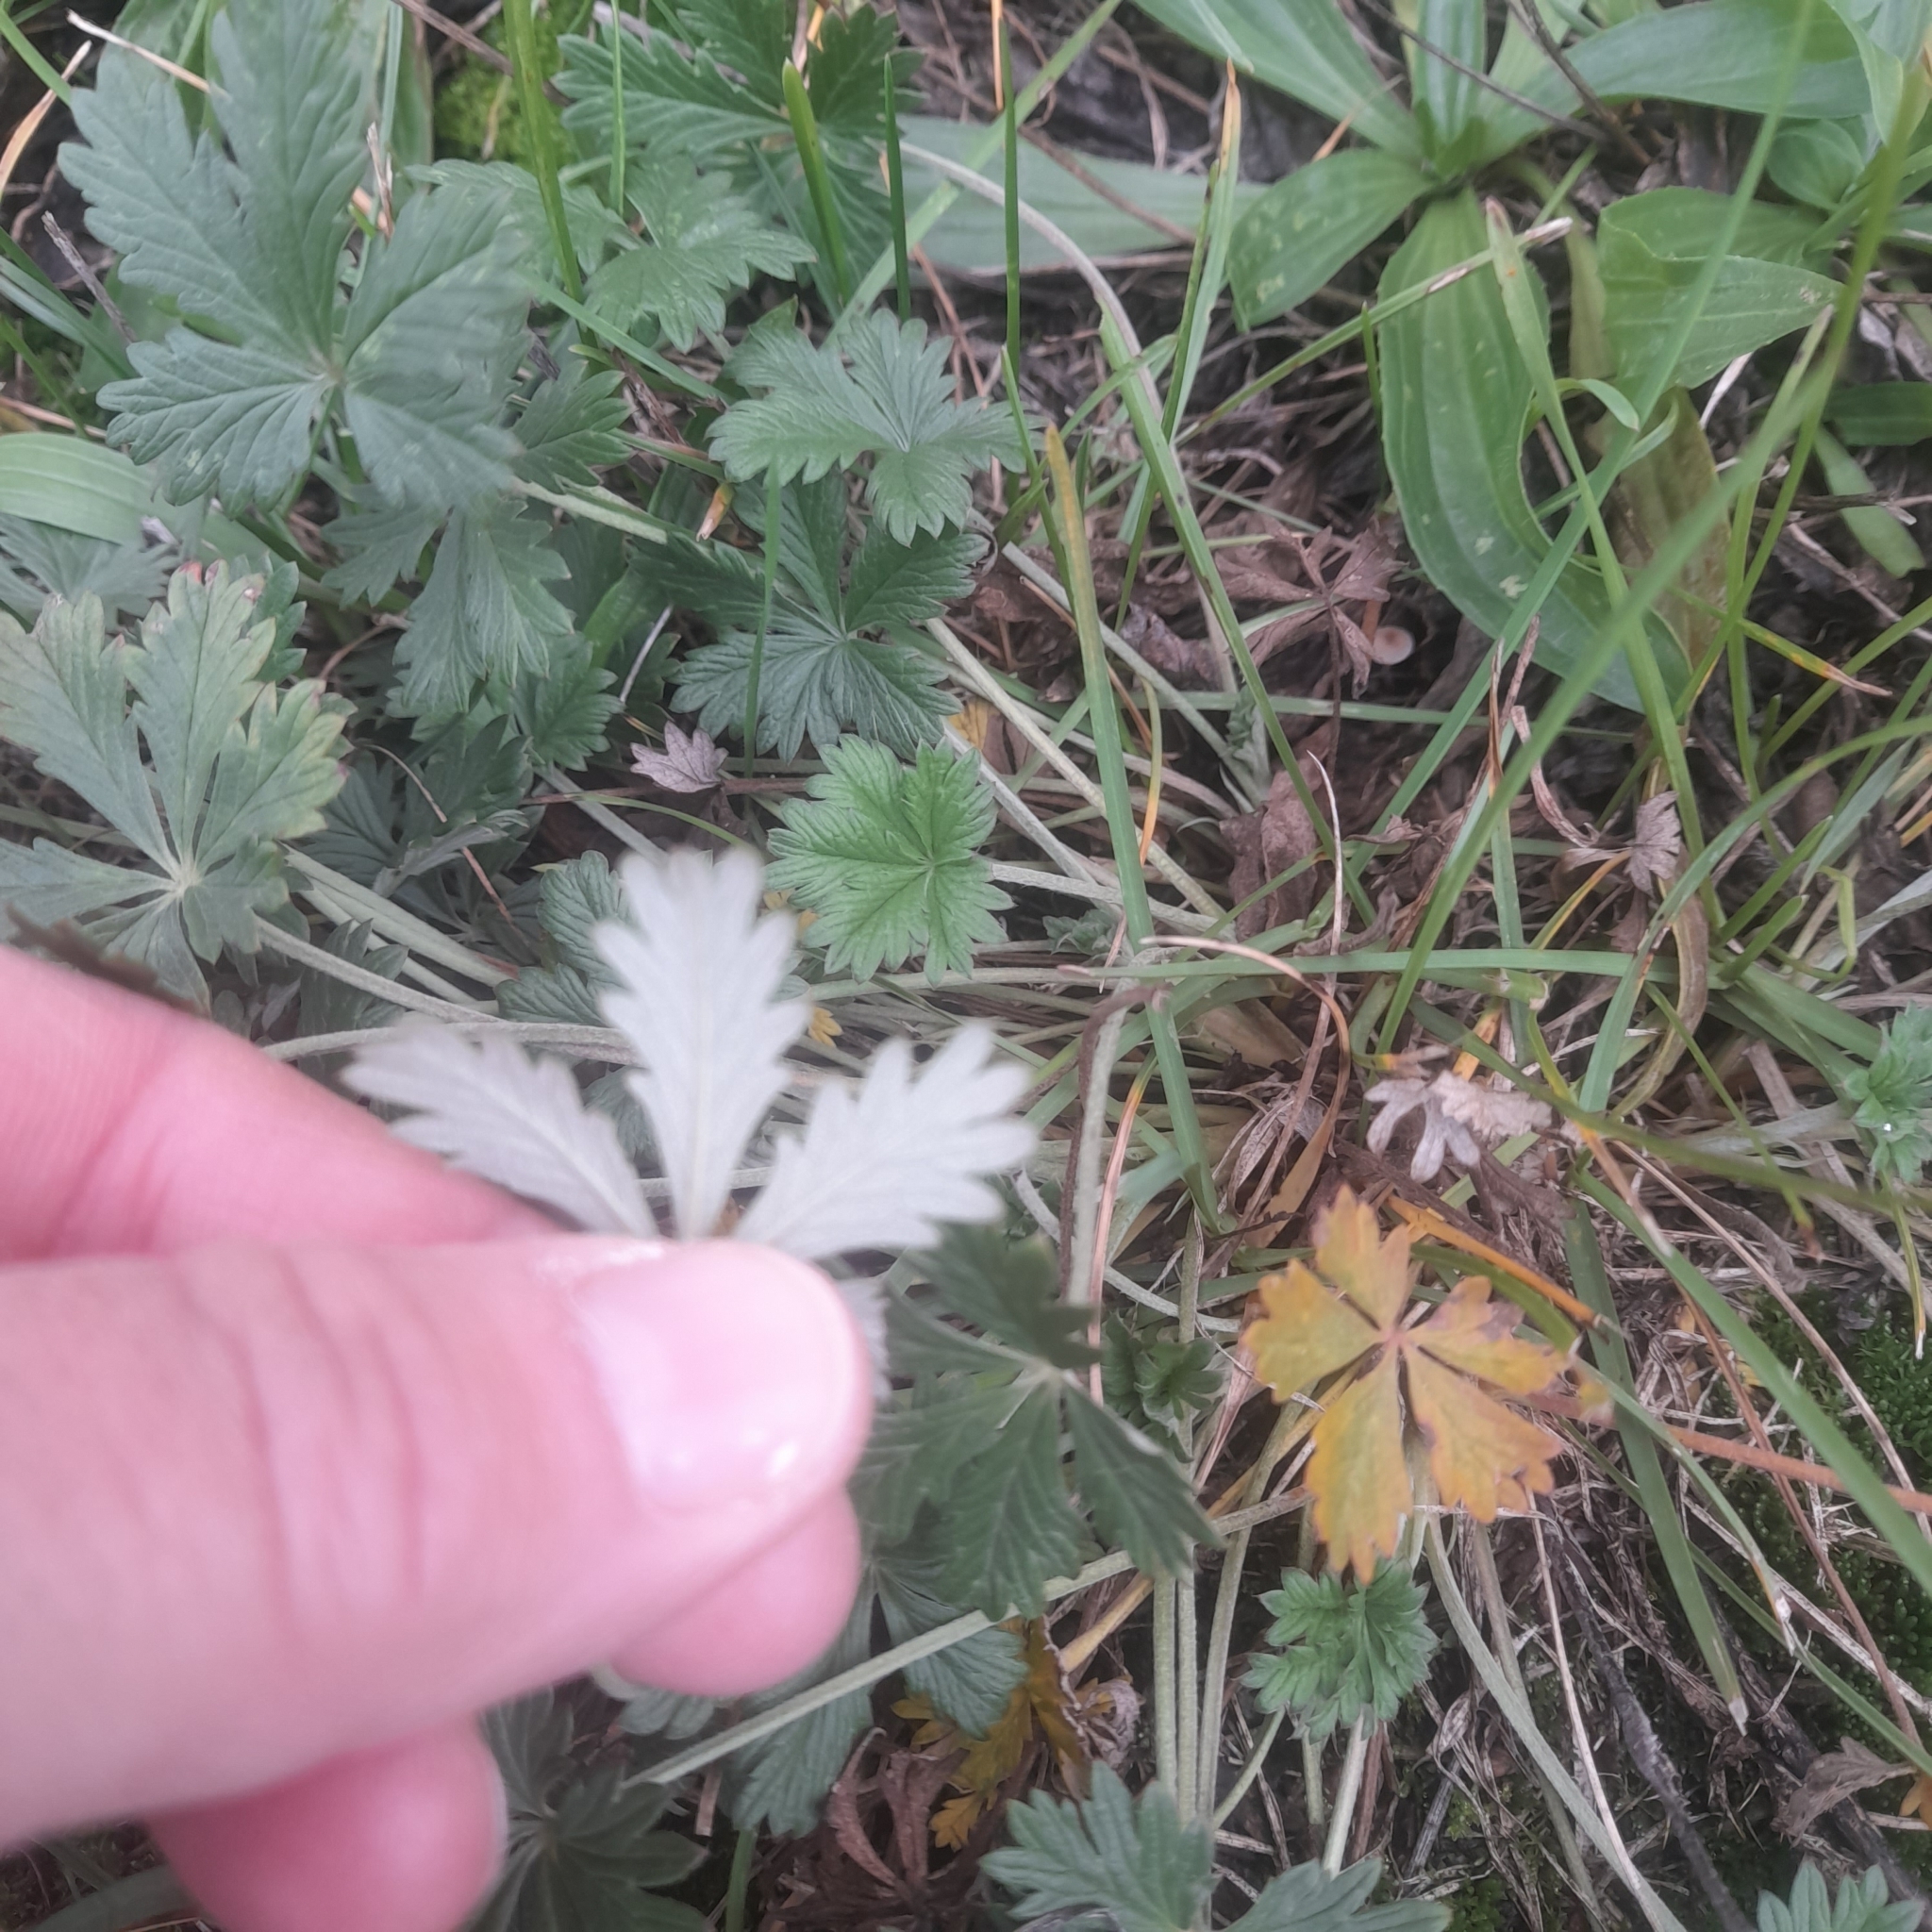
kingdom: Plantae
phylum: Tracheophyta
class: Magnoliopsida
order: Rosales
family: Rosaceae
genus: Potentilla
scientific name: Potentilla argentea
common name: Hoary cinquefoil
